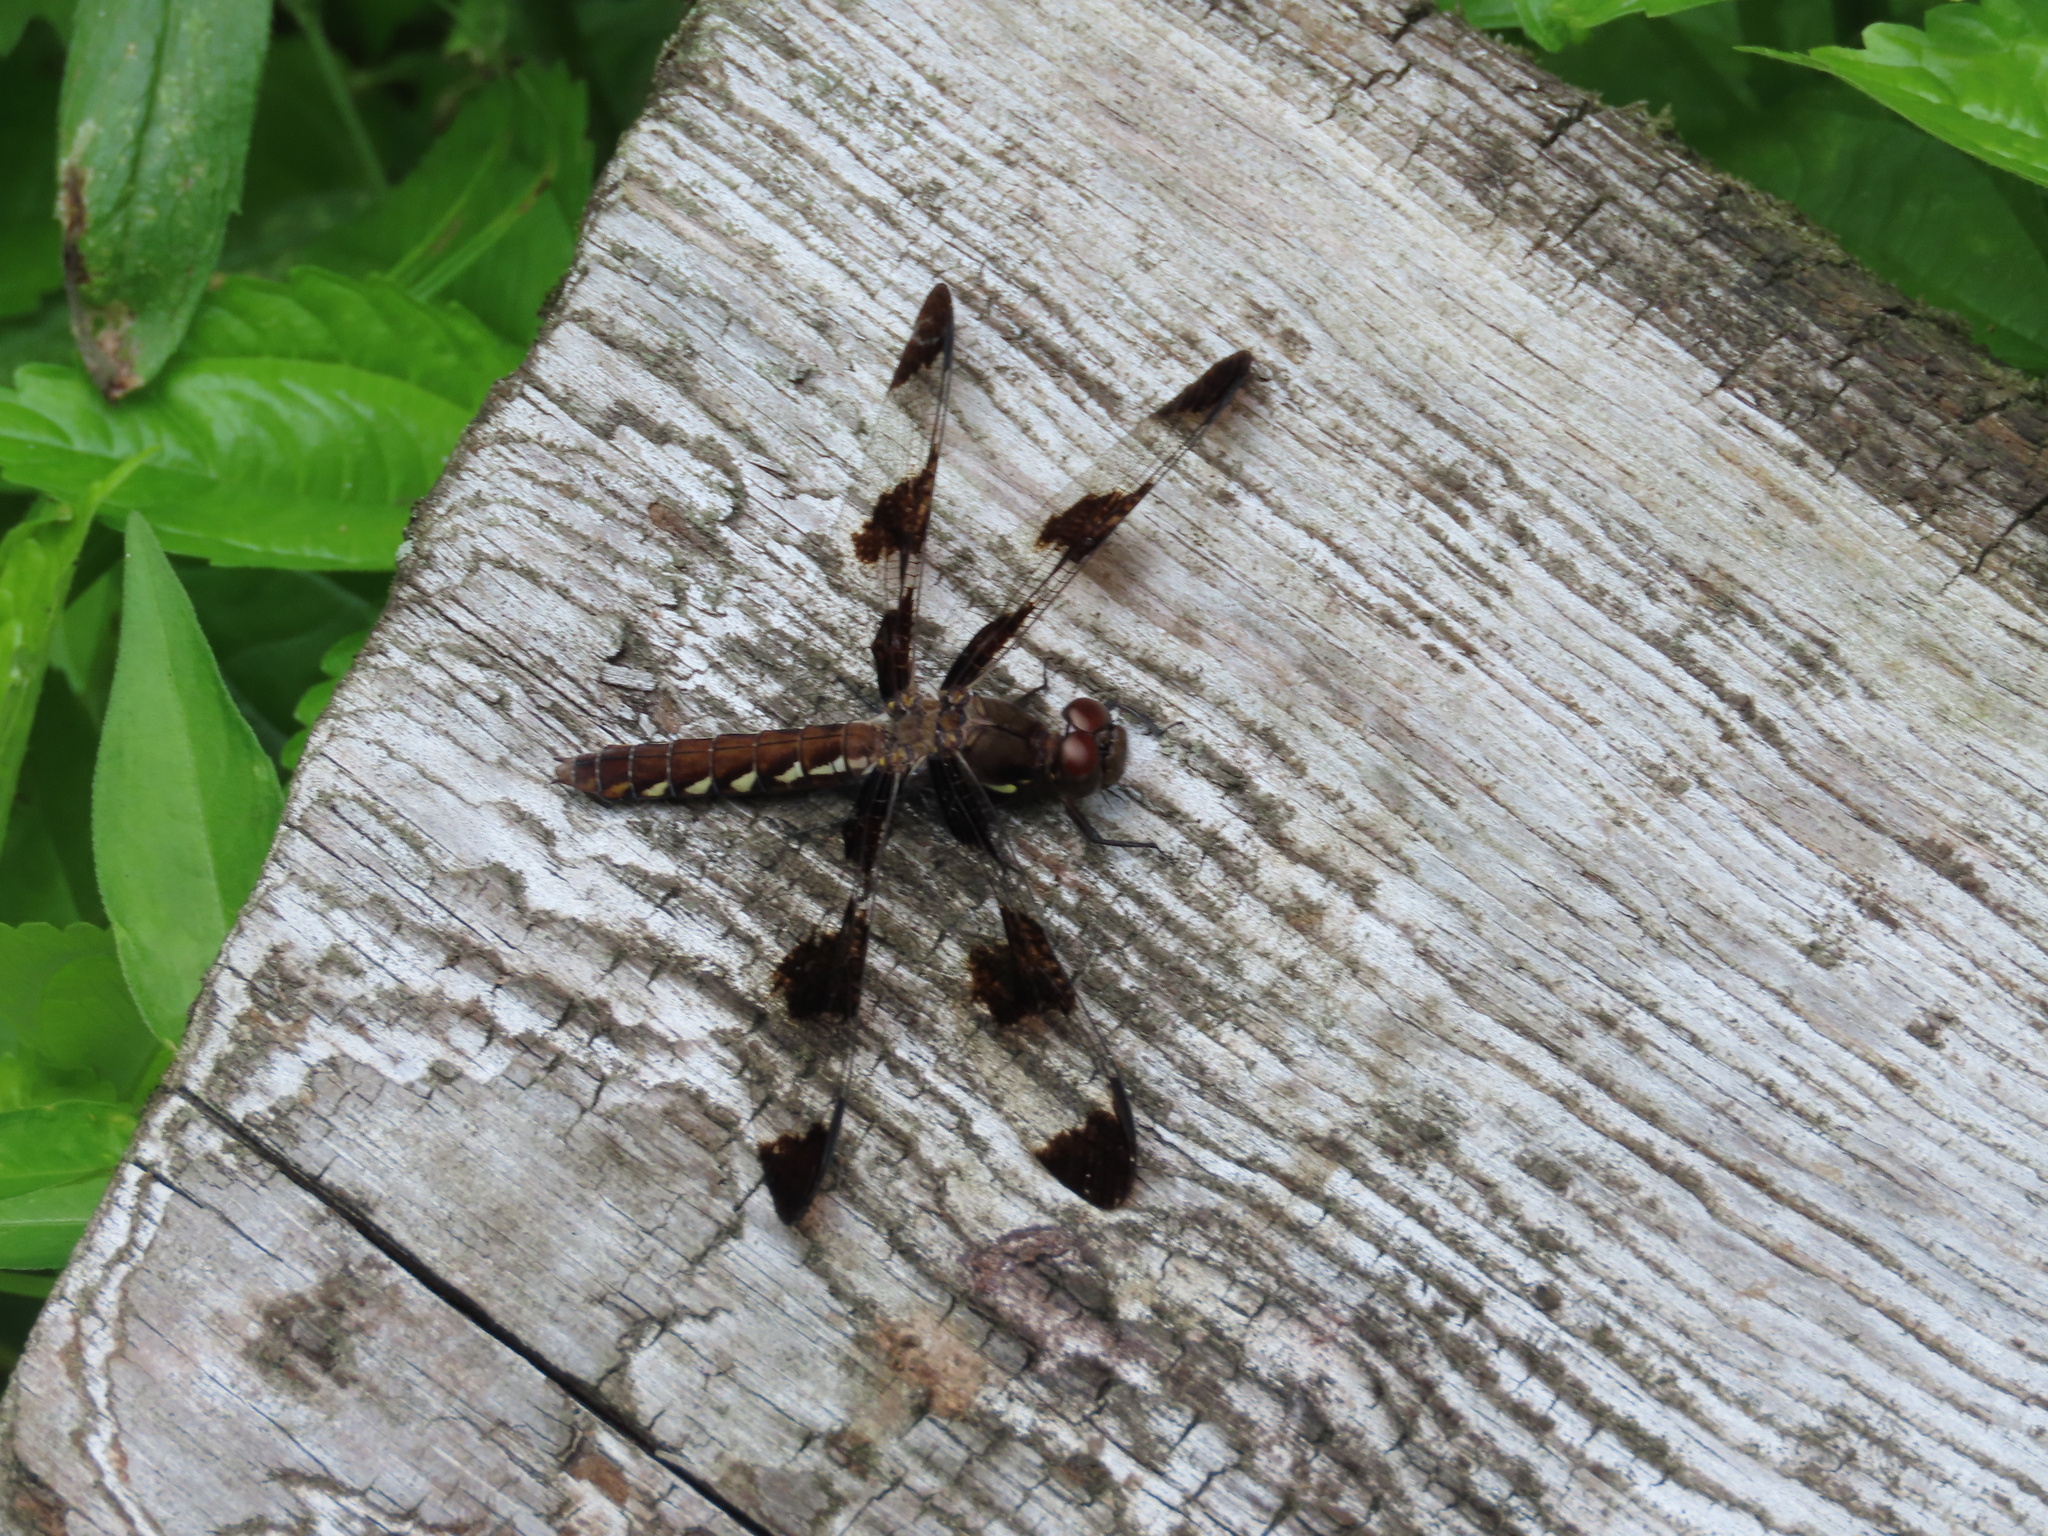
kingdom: Animalia
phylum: Arthropoda
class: Insecta
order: Odonata
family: Libellulidae
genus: Plathemis
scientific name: Plathemis lydia
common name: Common whitetail
